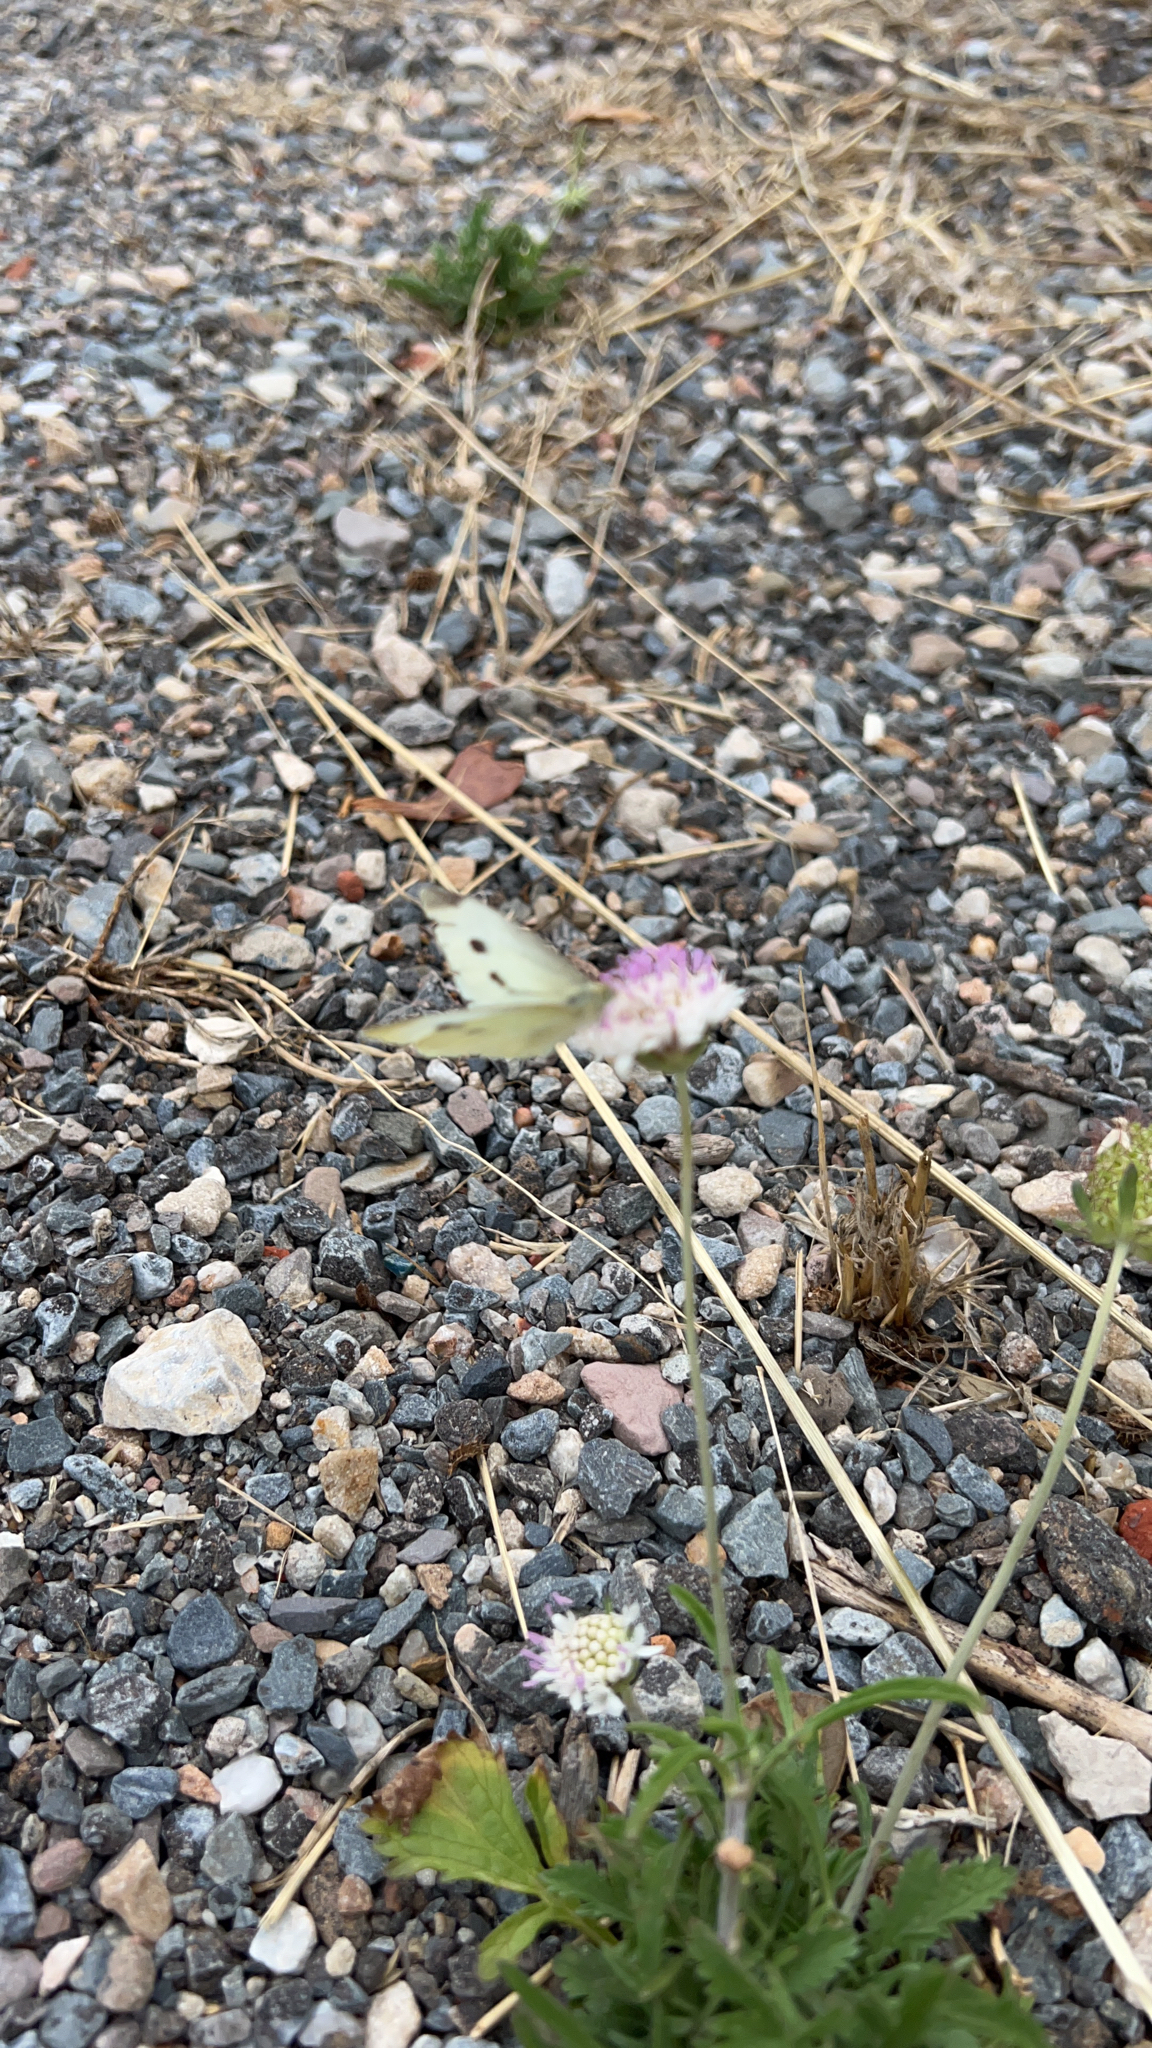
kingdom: Animalia
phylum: Arthropoda
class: Insecta
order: Lepidoptera
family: Pieridae
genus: Pieris
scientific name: Pieris rapae
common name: Small white
